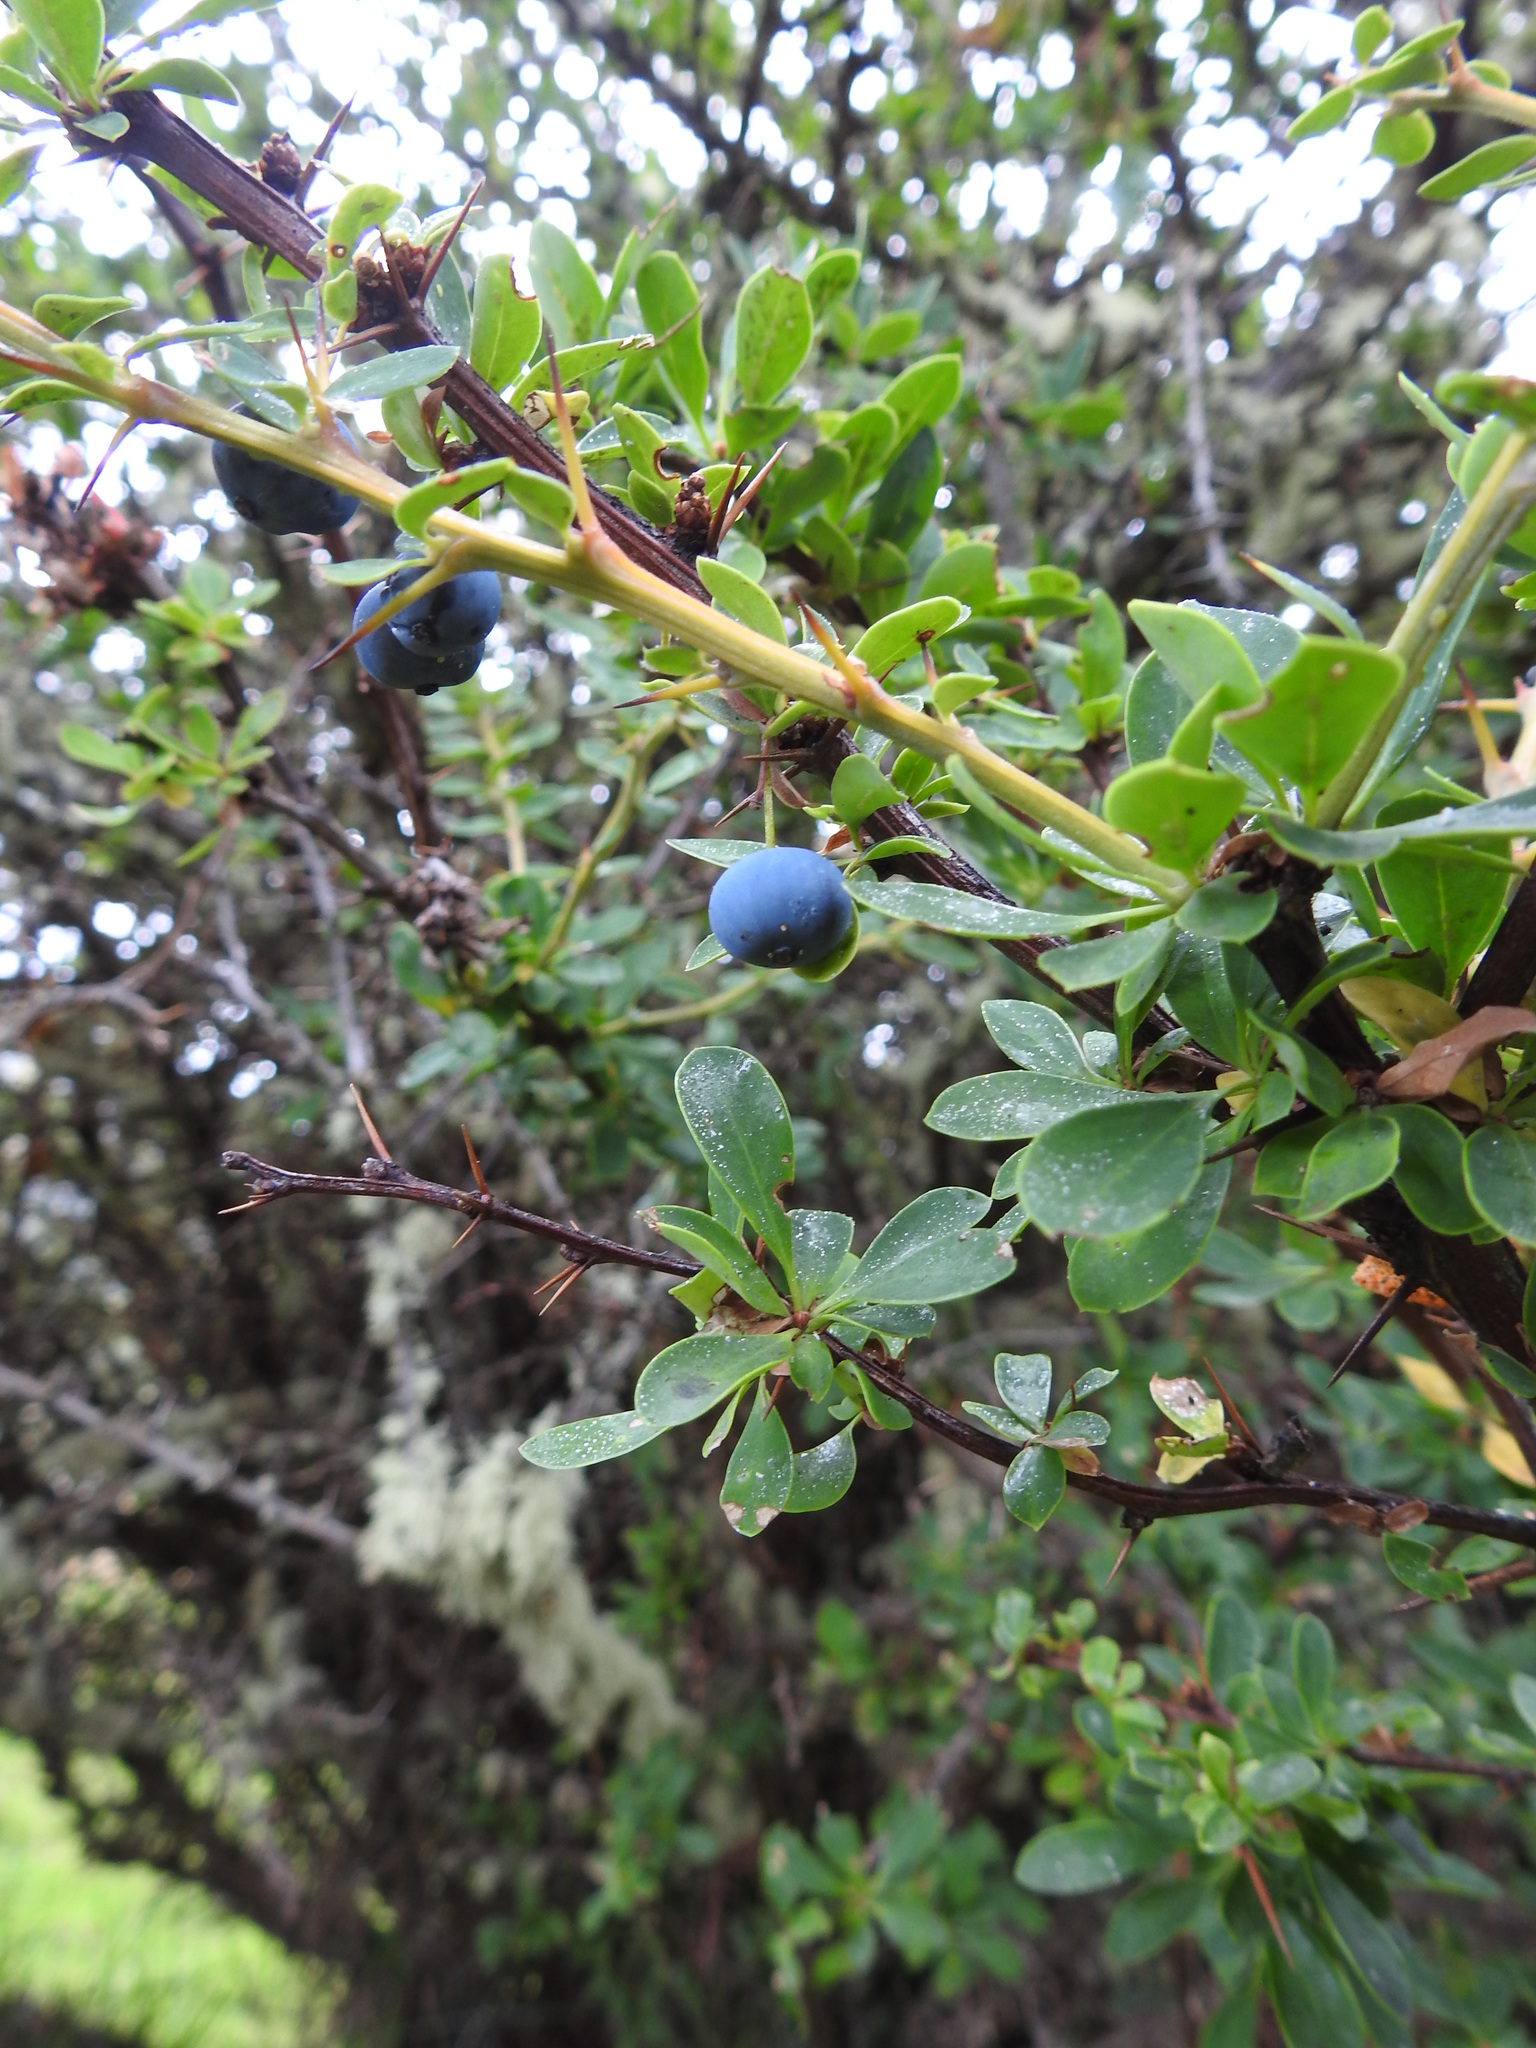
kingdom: Plantae
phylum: Tracheophyta
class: Magnoliopsida
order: Ranunculales
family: Berberidaceae
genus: Berberis
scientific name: Berberis microphylla
